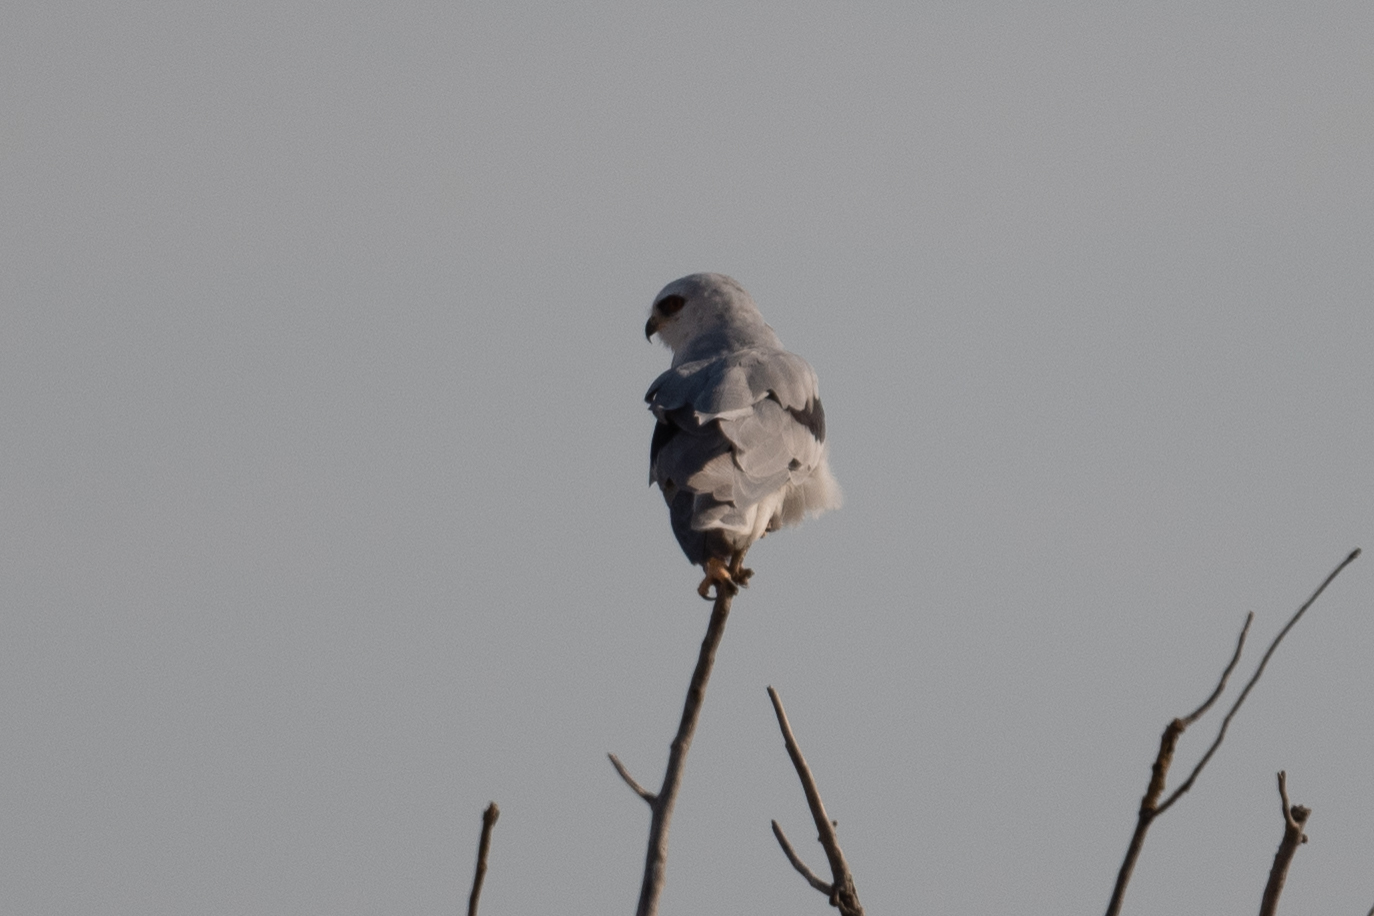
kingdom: Animalia
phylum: Chordata
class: Aves
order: Accipitriformes
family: Accipitridae
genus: Elanus
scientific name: Elanus leucurus
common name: White-tailed kite
